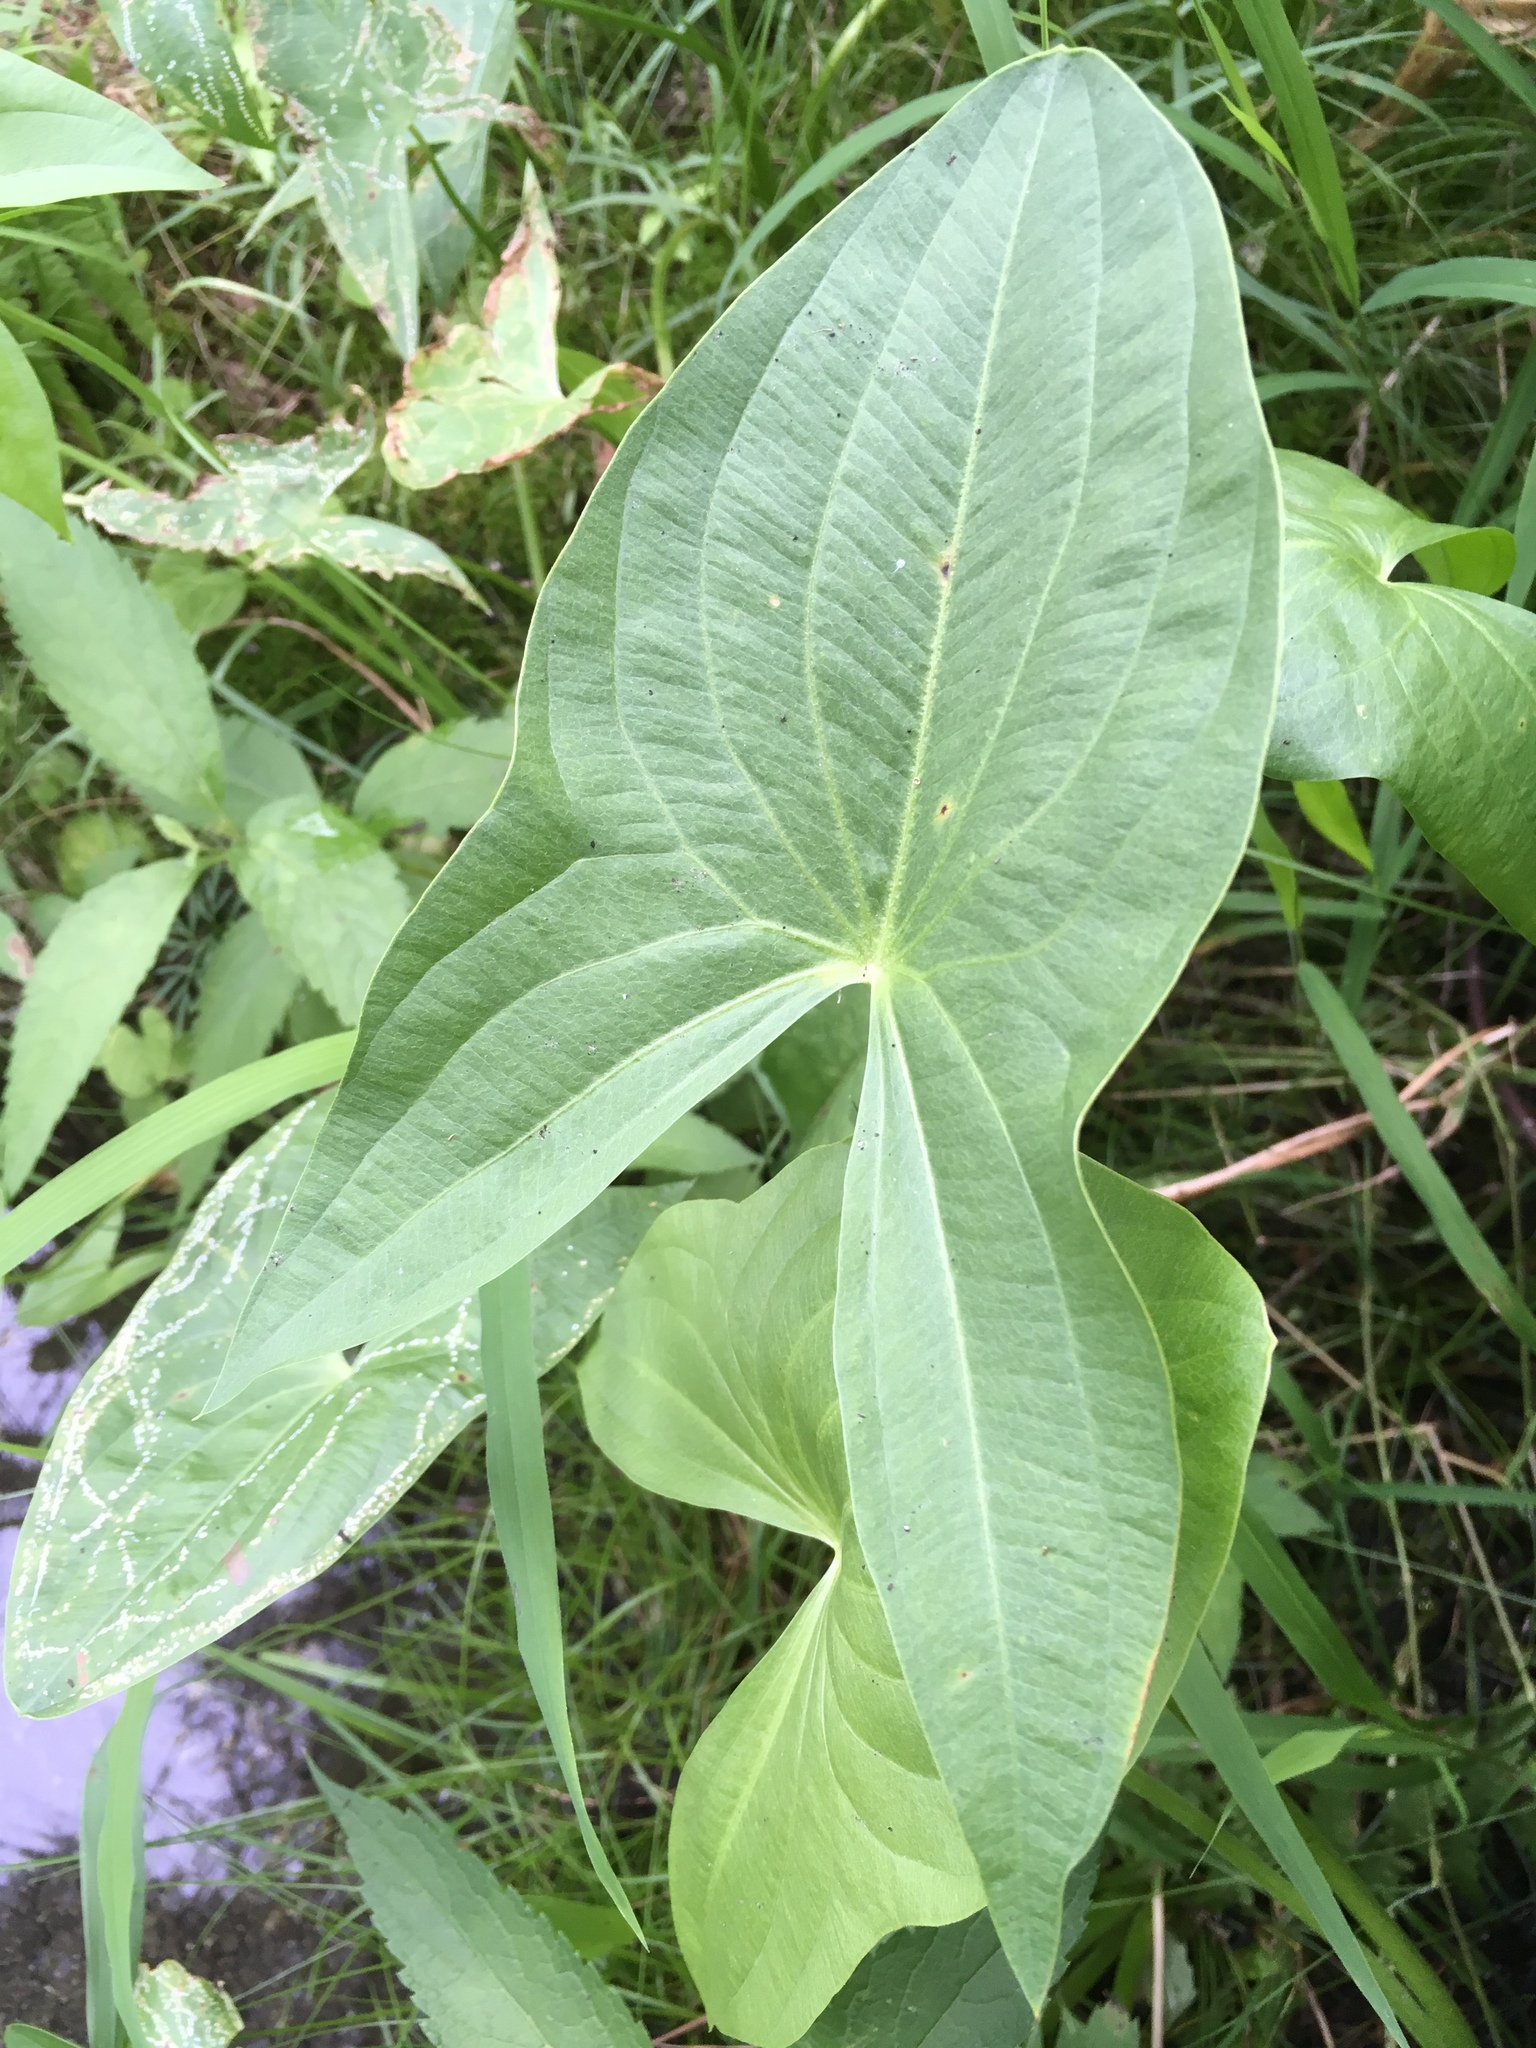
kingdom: Plantae
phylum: Tracheophyta
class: Liliopsida
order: Alismatales
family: Alismataceae
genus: Sagittaria
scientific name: Sagittaria latifolia
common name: Duck-potato
